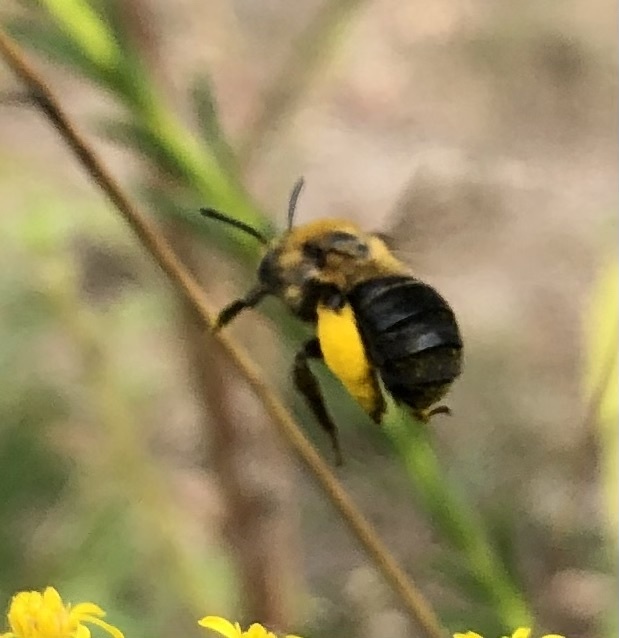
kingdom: Animalia
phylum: Arthropoda
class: Insecta
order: Hymenoptera
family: Apidae
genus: Melissodes
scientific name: Melissodes dentiventris
